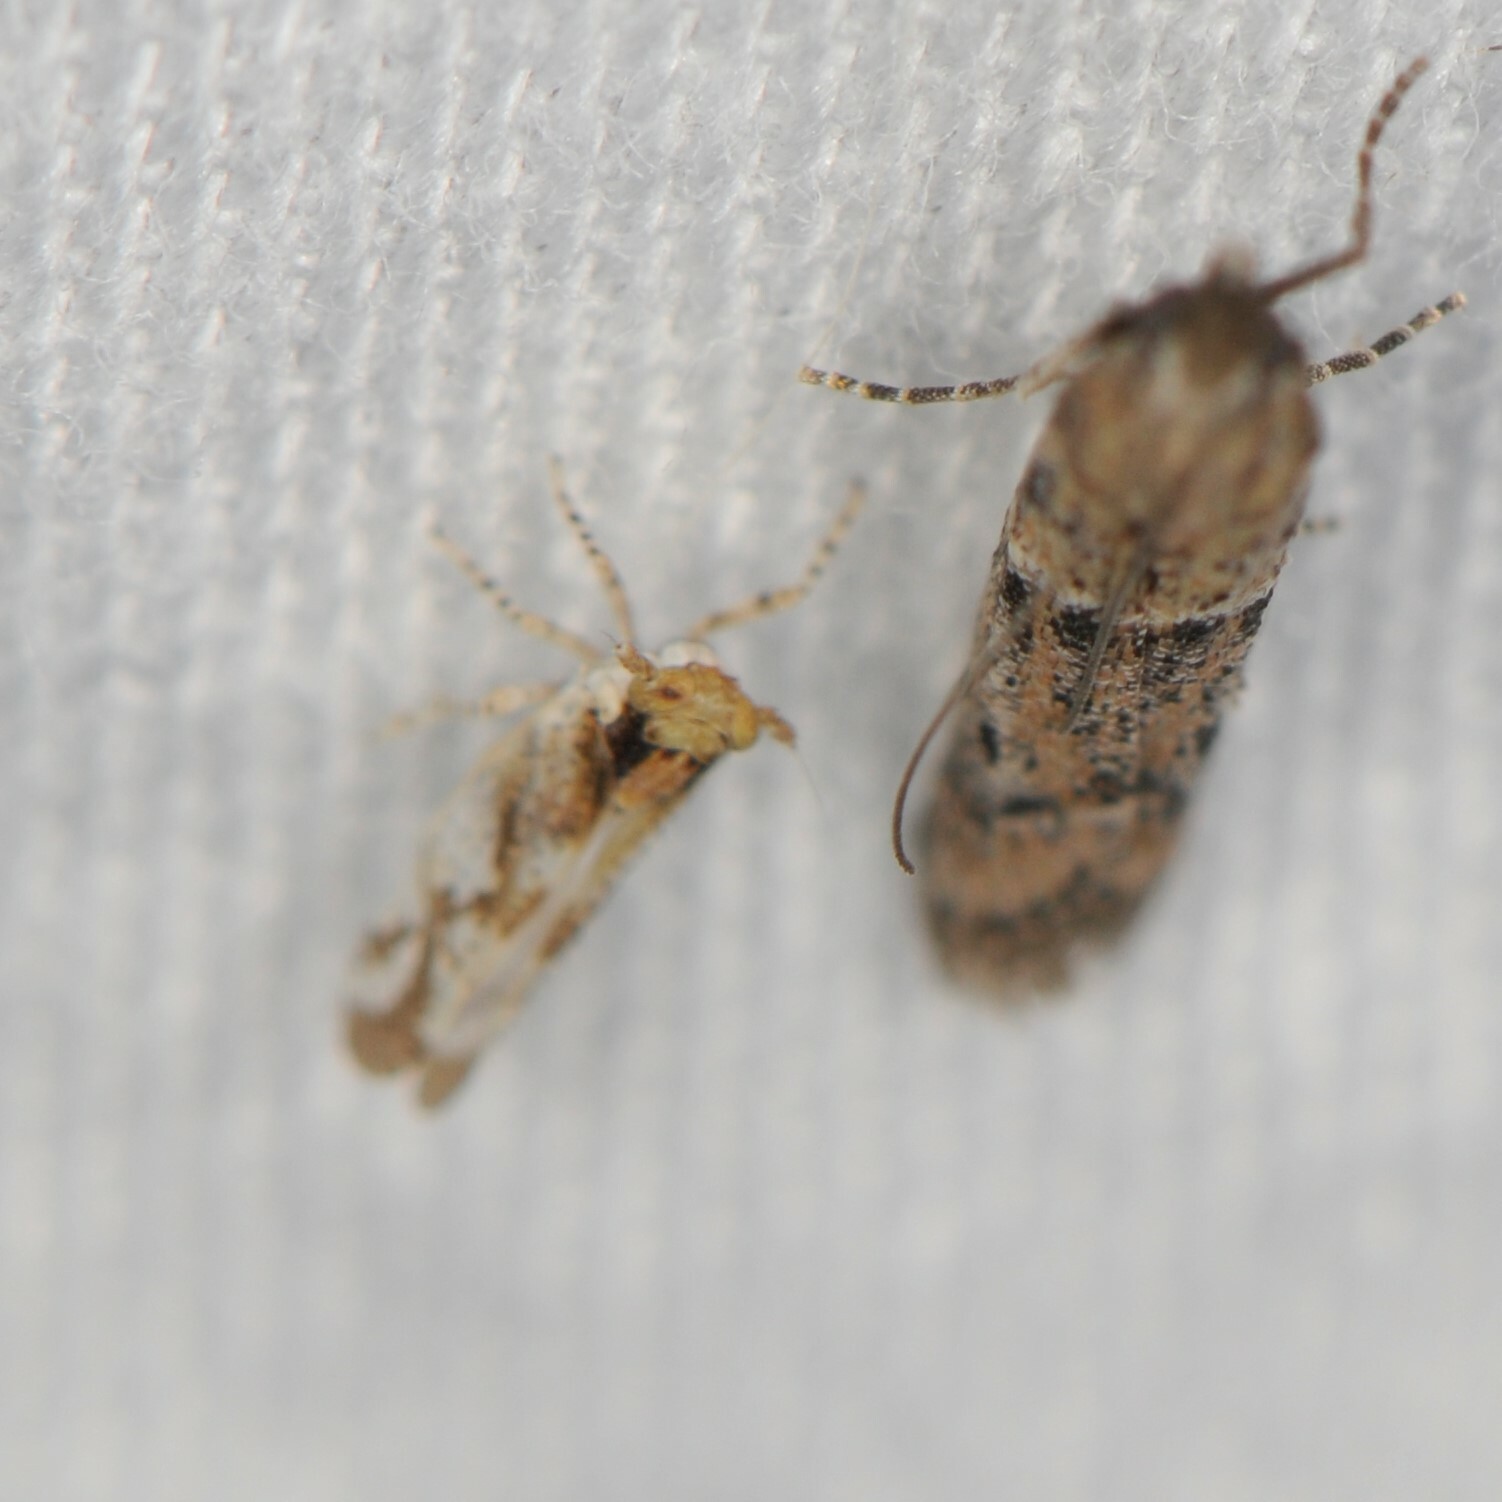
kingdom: Animalia
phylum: Arthropoda
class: Insecta
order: Hemiptera
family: Delphacidae
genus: Stobaera
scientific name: Stobaera
